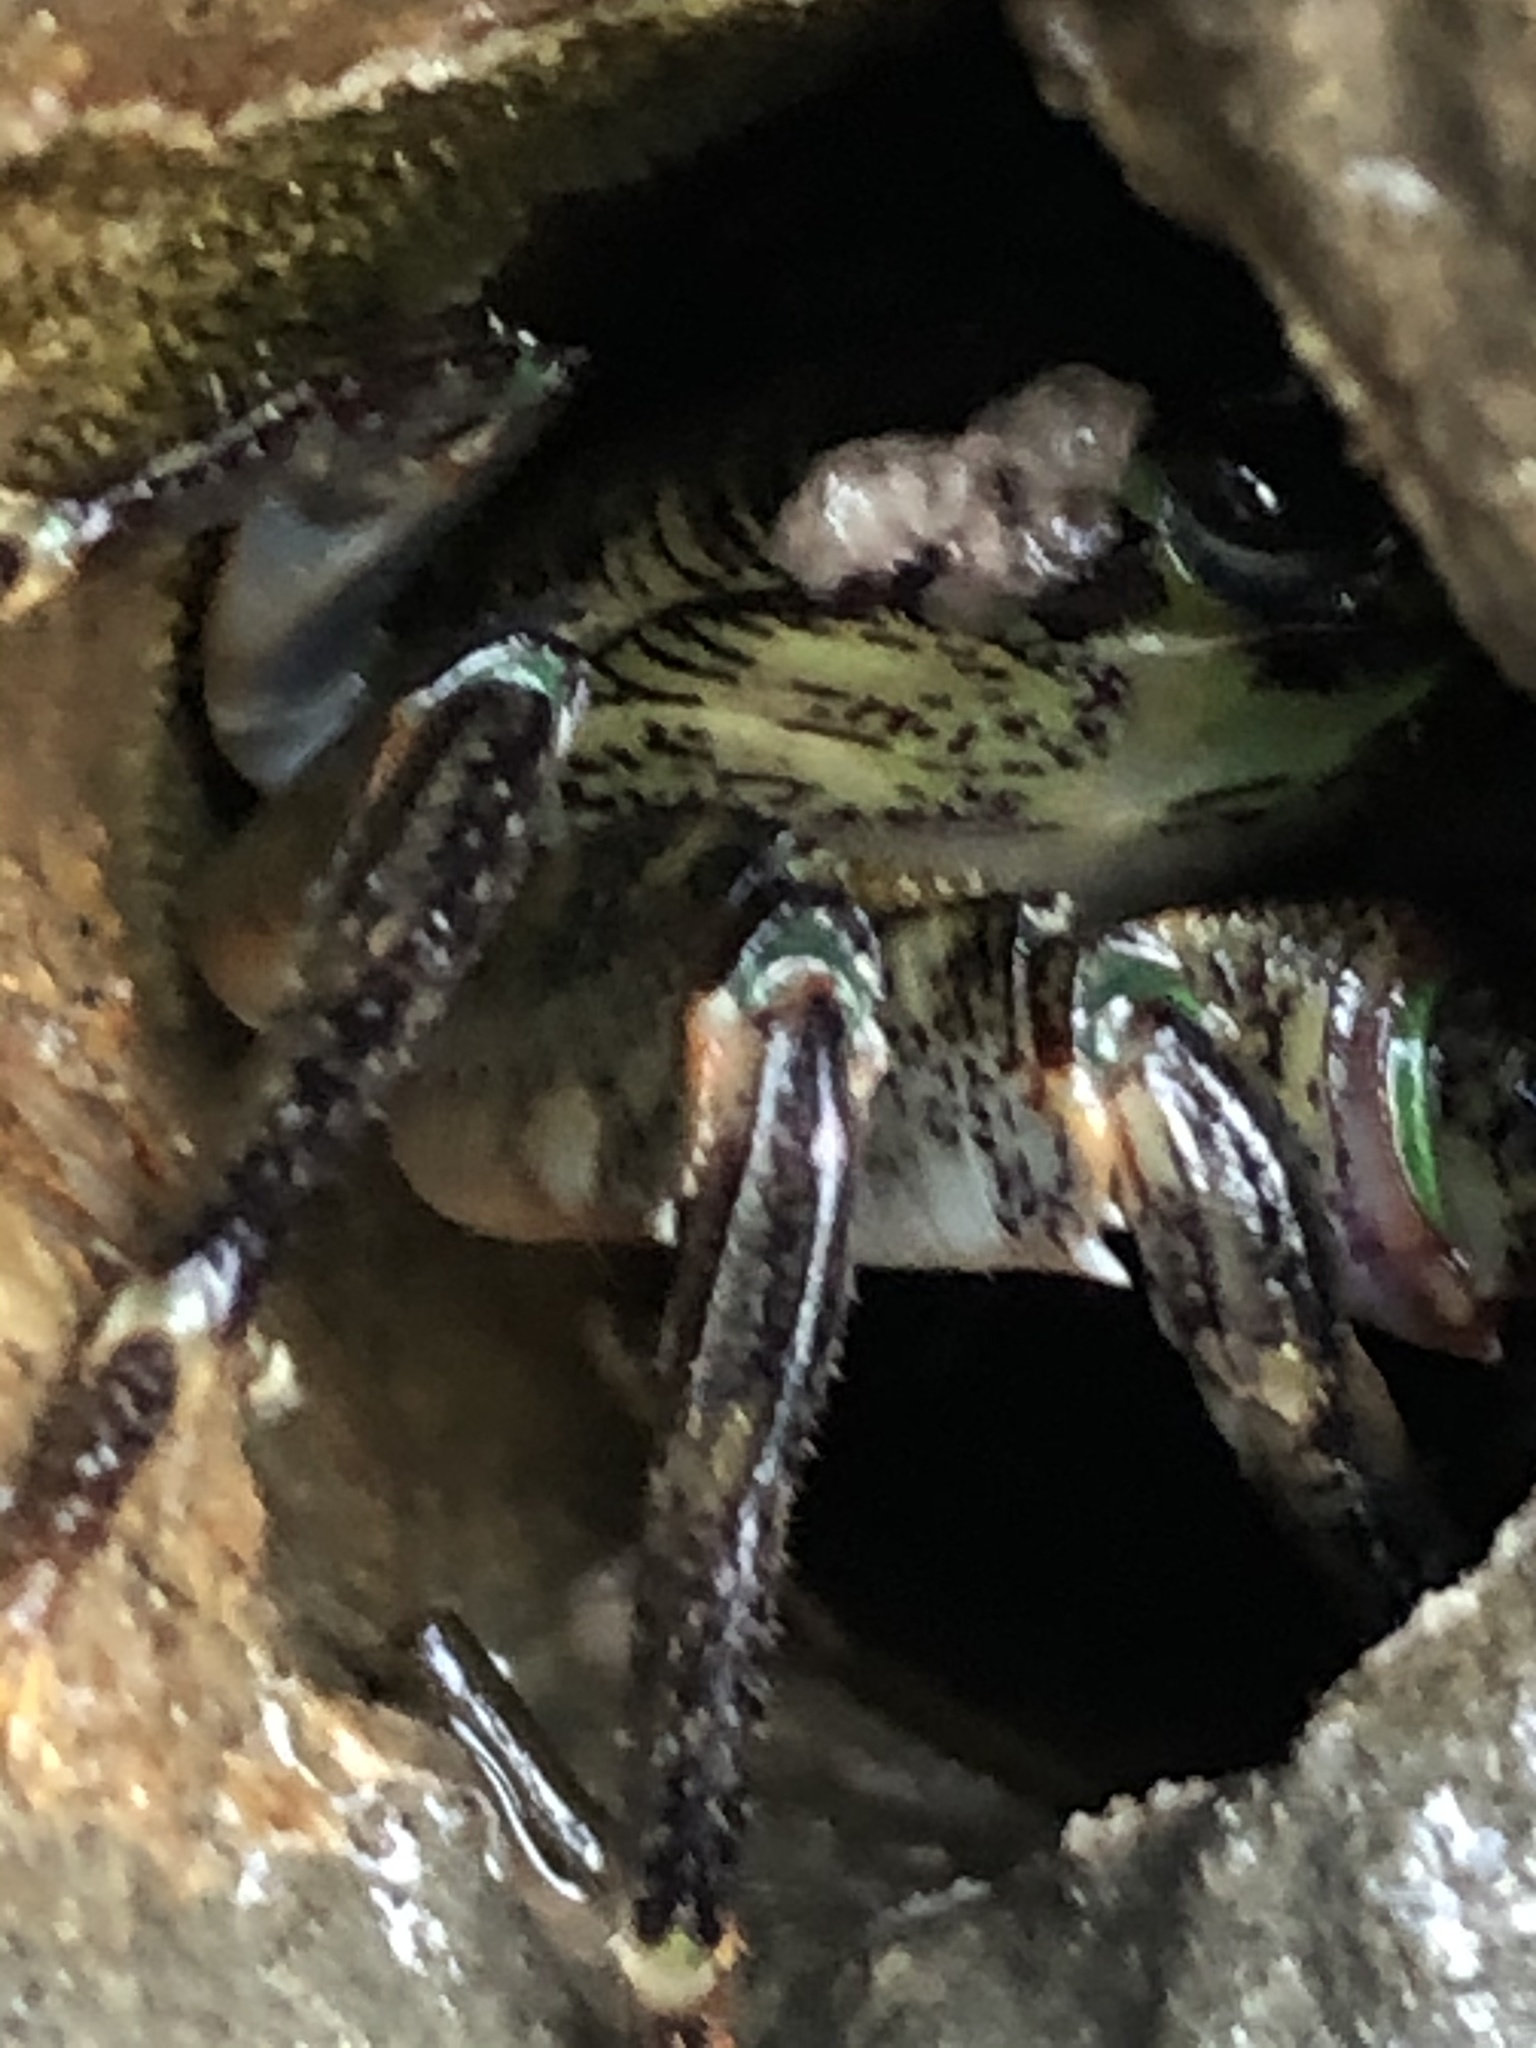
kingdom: Animalia
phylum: Arthropoda
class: Malacostraca
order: Decapoda
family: Grapsidae
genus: Pachygrapsus
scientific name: Pachygrapsus crassipes
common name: Striped shore crab
